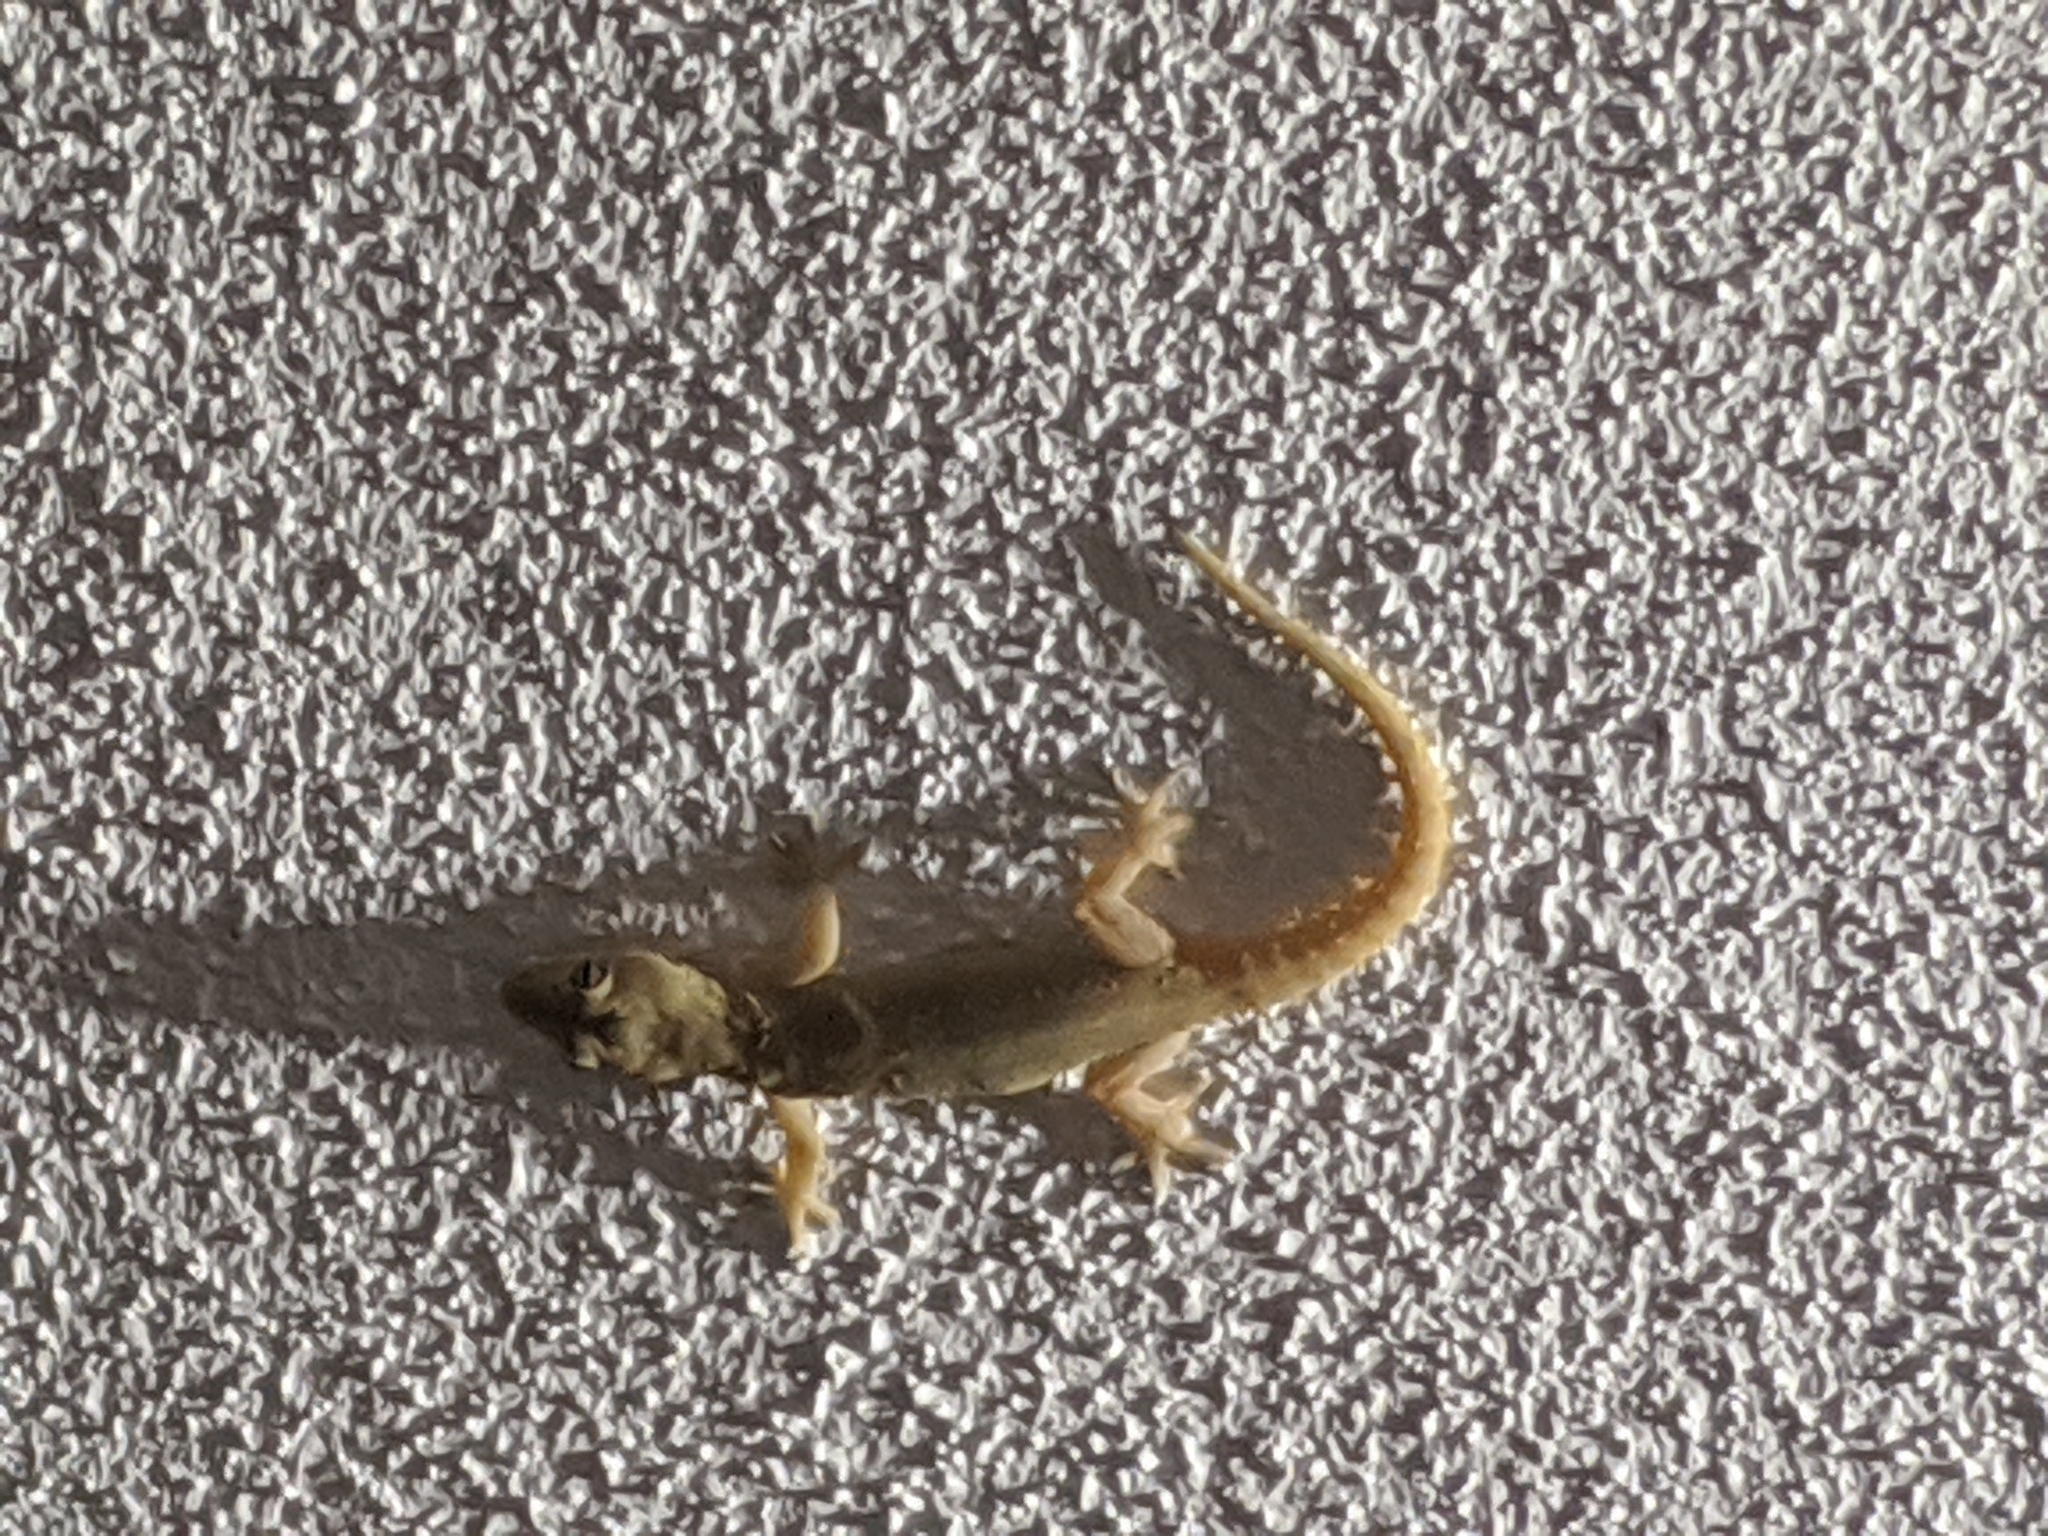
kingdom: Animalia
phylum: Chordata
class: Squamata
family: Gekkonidae
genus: Hemidactylus
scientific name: Hemidactylus frenatus
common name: Common house gecko
